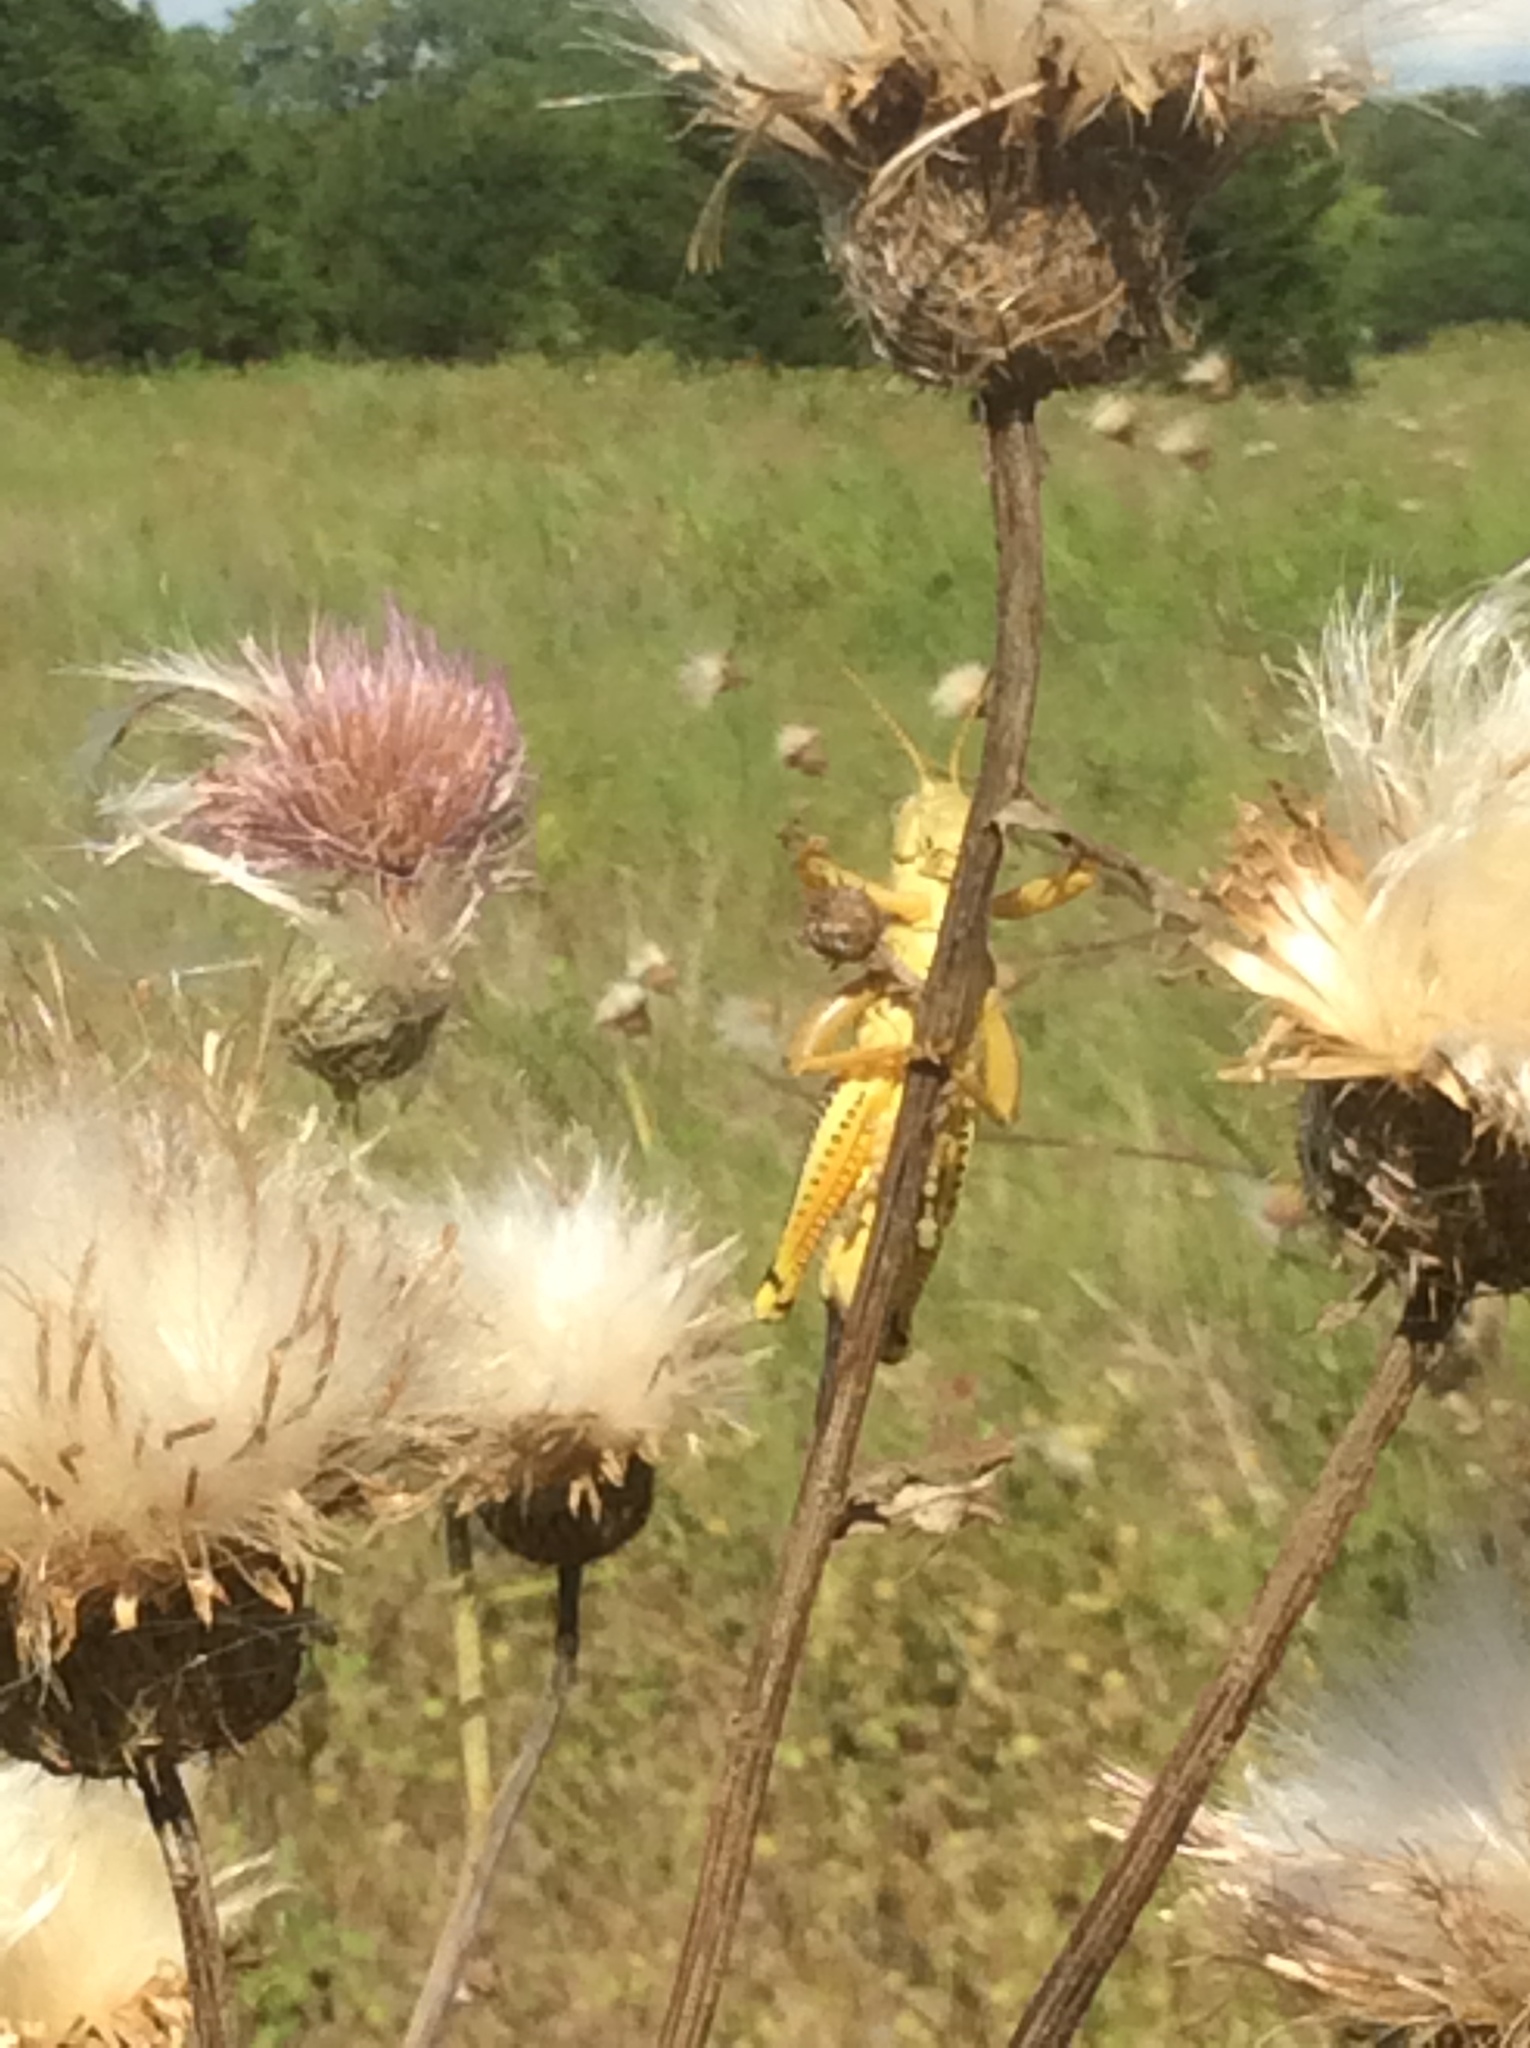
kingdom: Animalia
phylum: Arthropoda
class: Insecta
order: Orthoptera
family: Acrididae
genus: Melanoplus
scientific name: Melanoplus differentialis
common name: Differential grasshopper
